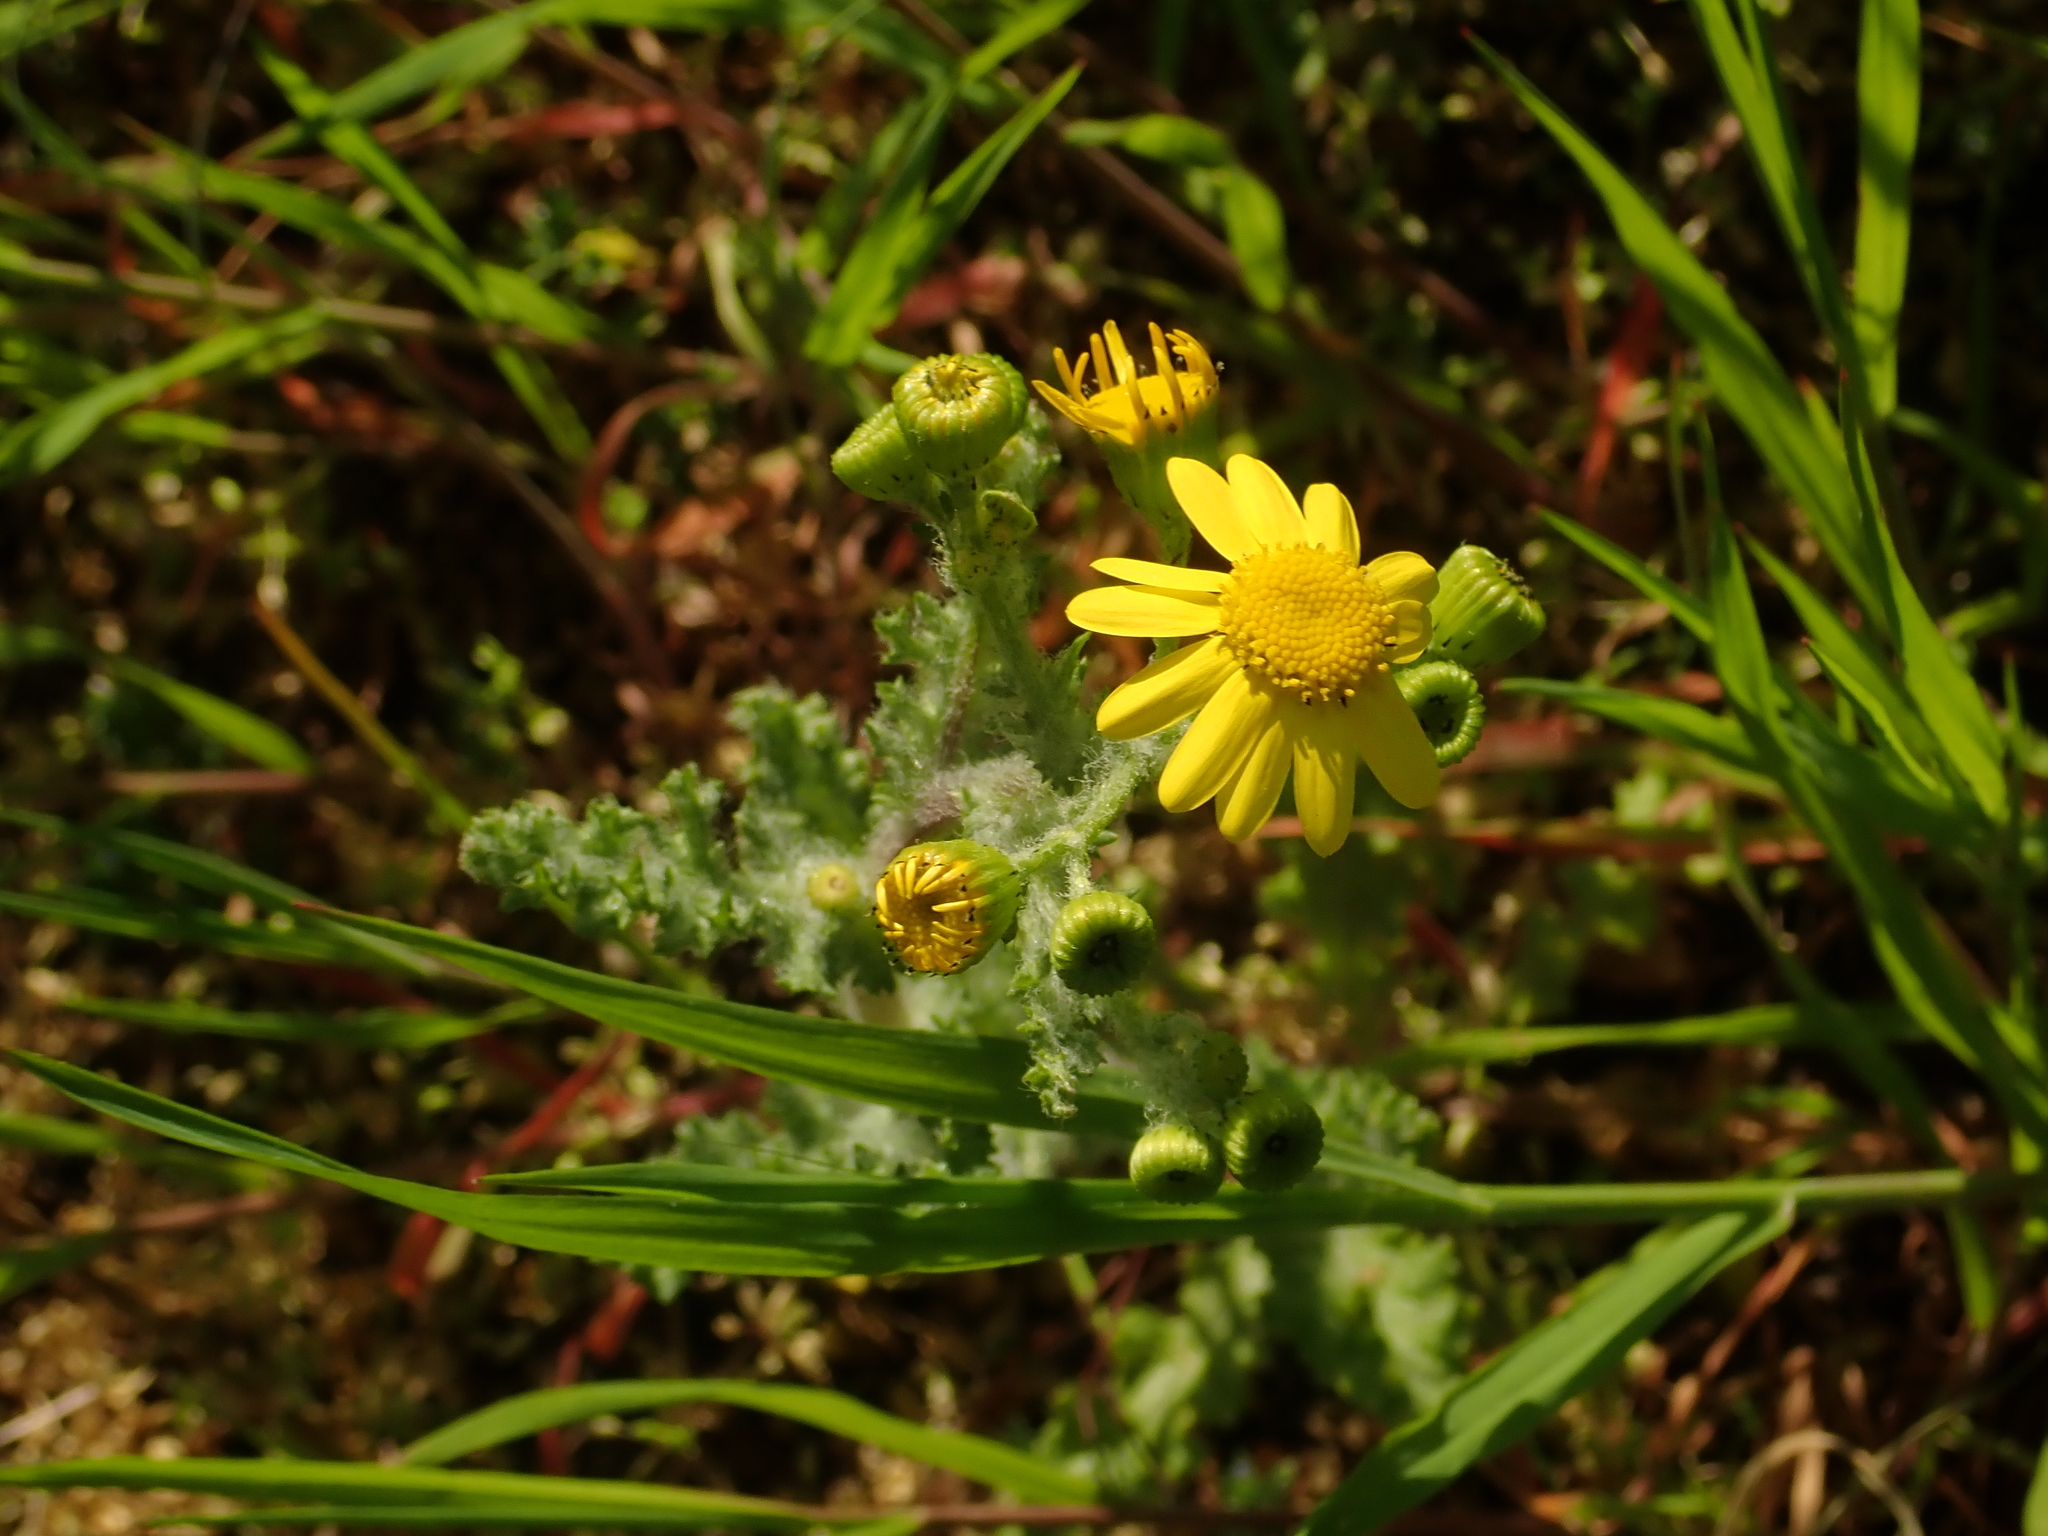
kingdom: Plantae
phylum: Tracheophyta
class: Magnoliopsida
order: Asterales
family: Asteraceae
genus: Senecio
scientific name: Senecio vernalis
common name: Eastern groundsel
